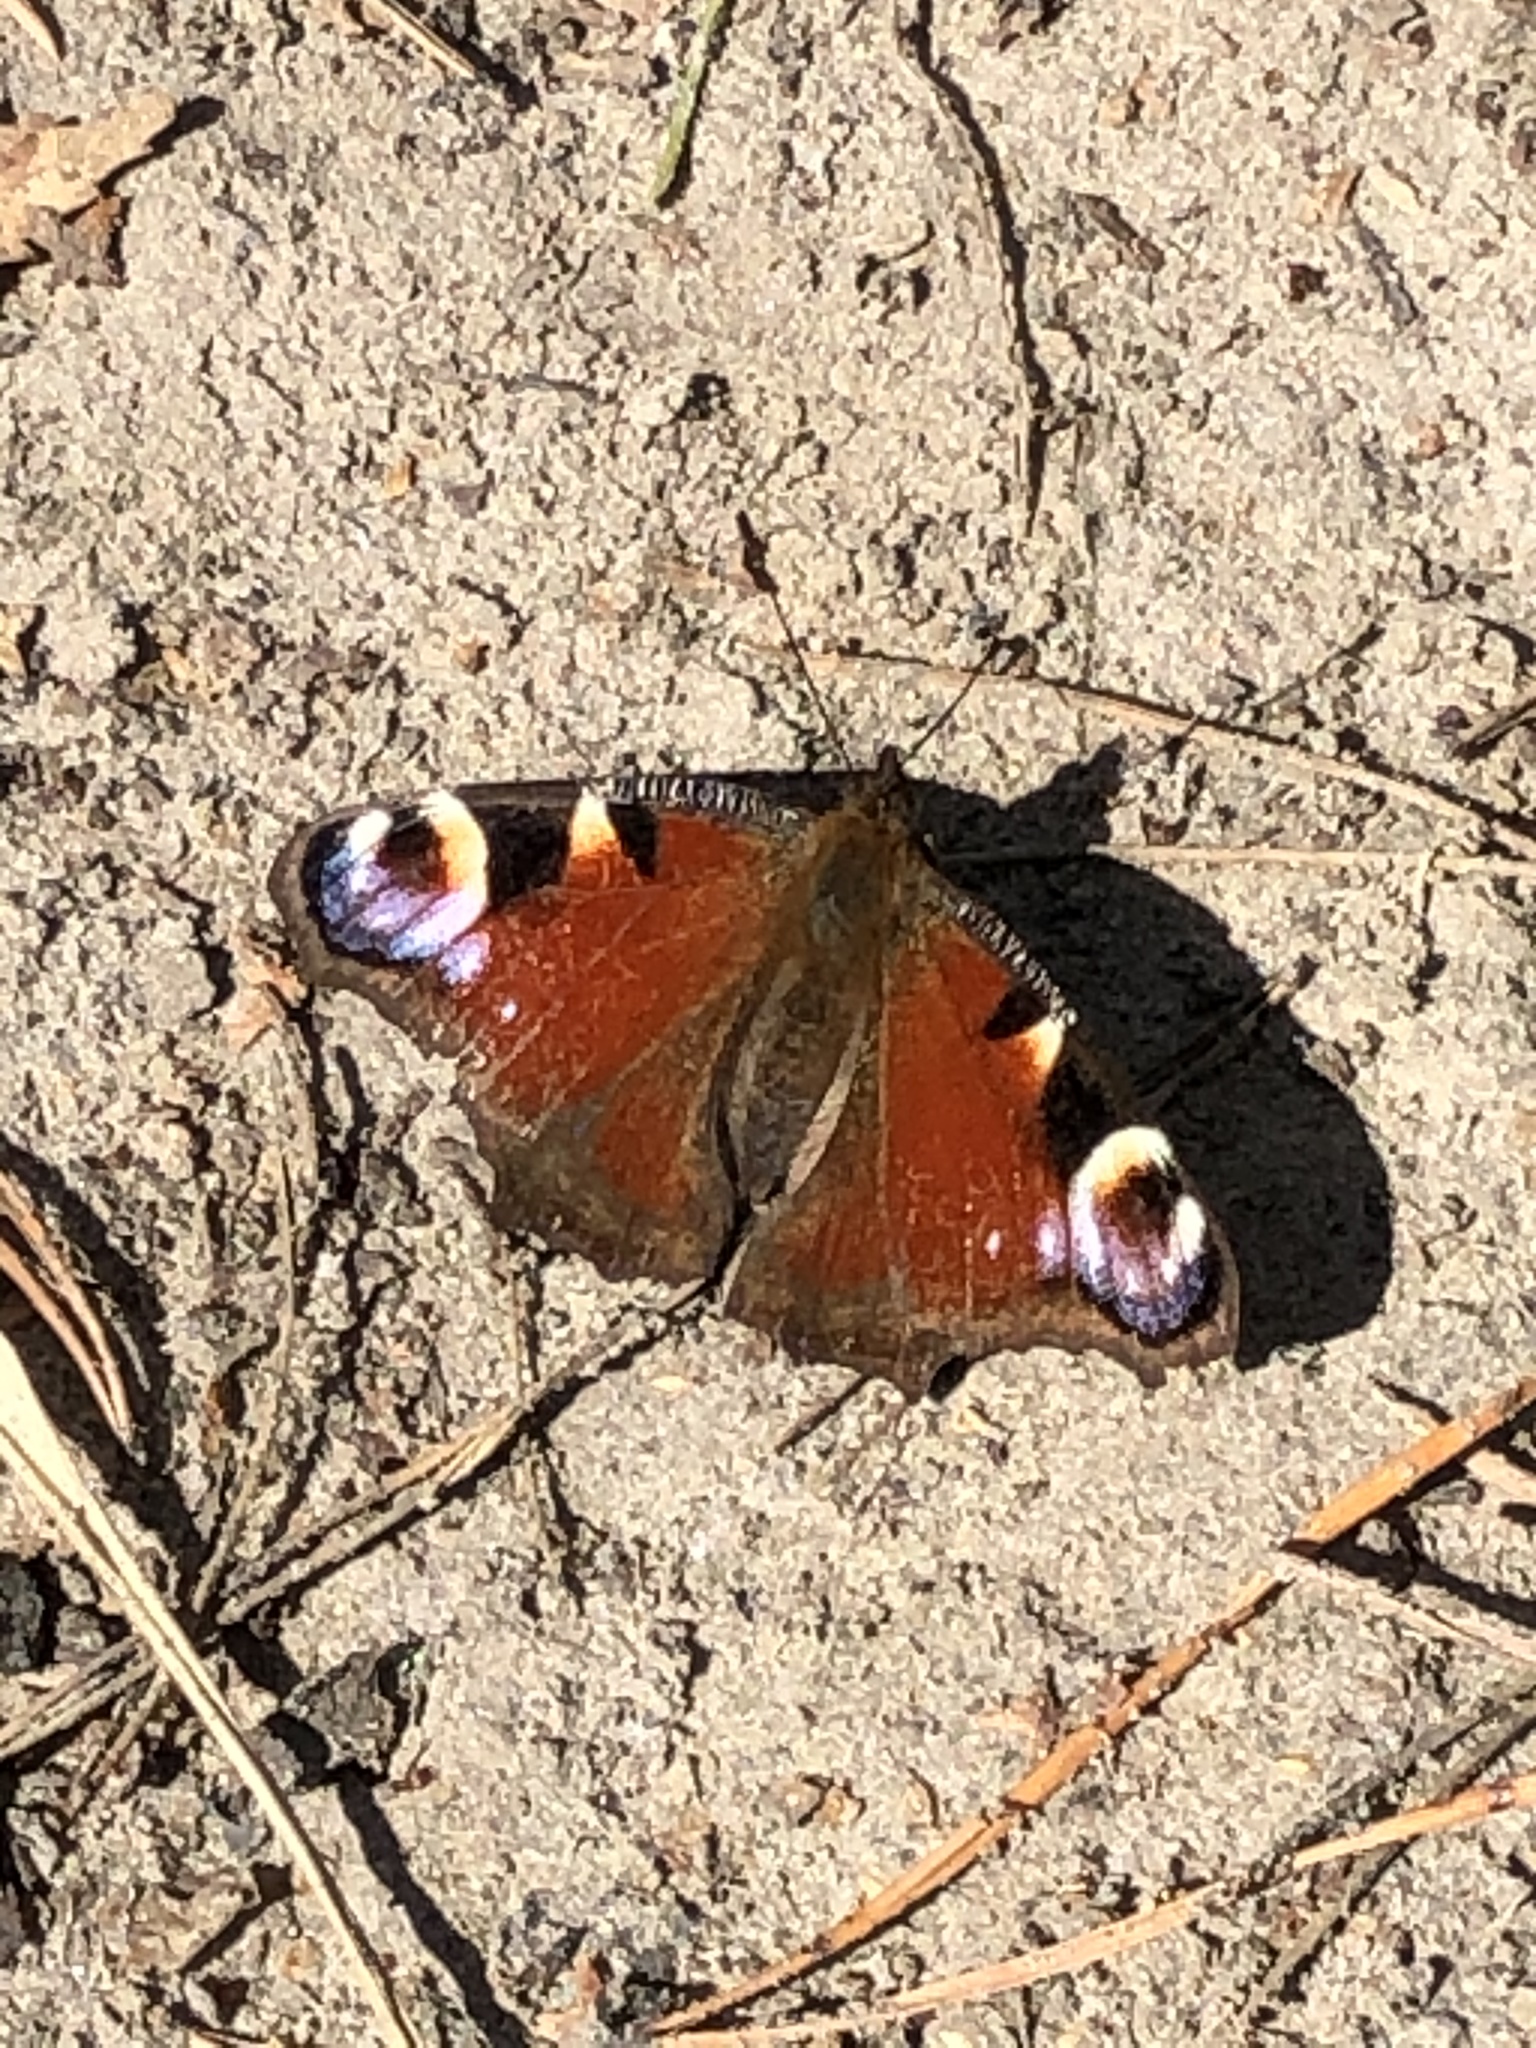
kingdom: Animalia
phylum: Arthropoda
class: Insecta
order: Lepidoptera
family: Nymphalidae
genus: Aglais
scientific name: Aglais io
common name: Peacock
